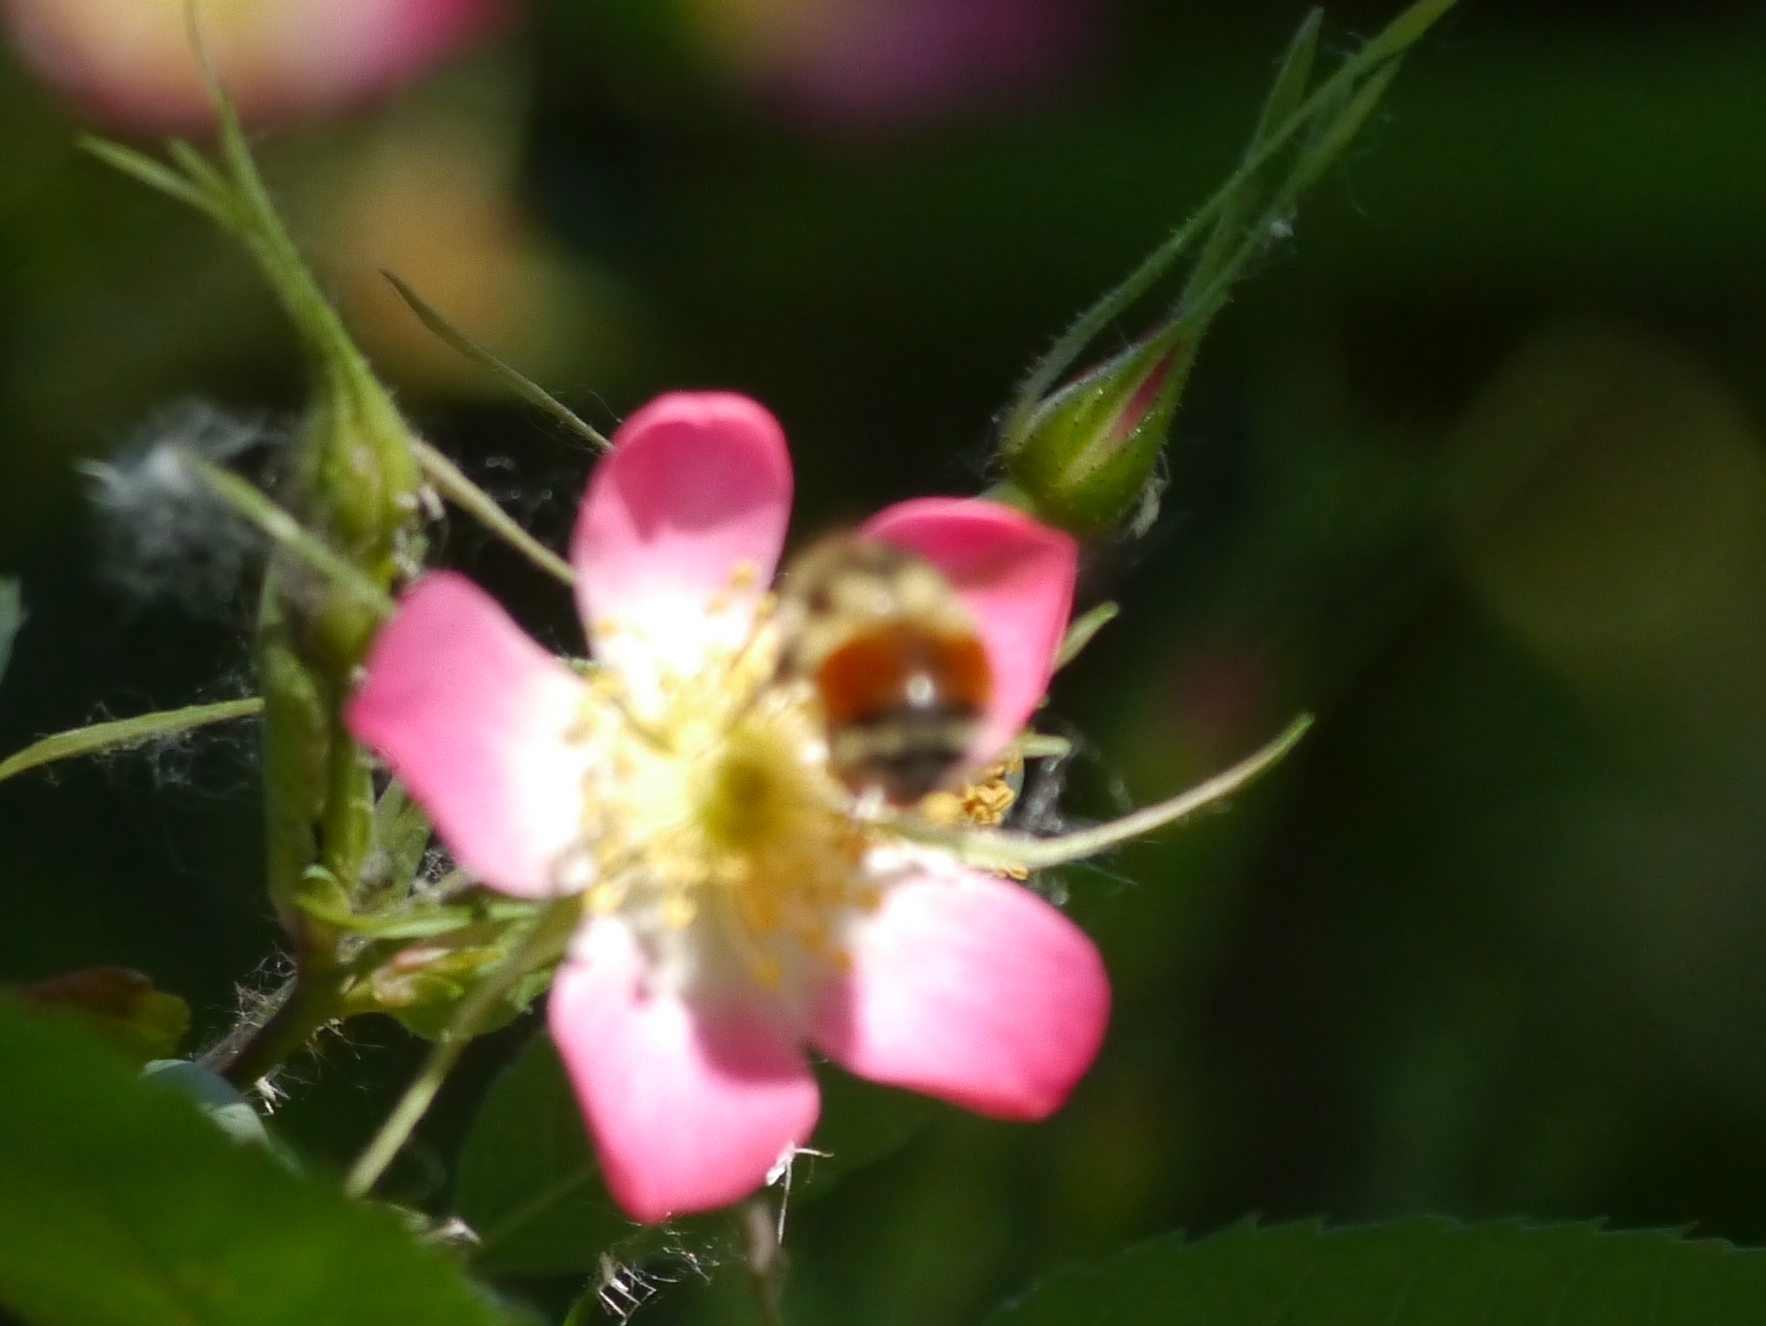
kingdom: Animalia
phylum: Arthropoda
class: Insecta
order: Hymenoptera
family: Apidae
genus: Bombus
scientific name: Bombus melanopygus
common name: Black tail bumble bee
